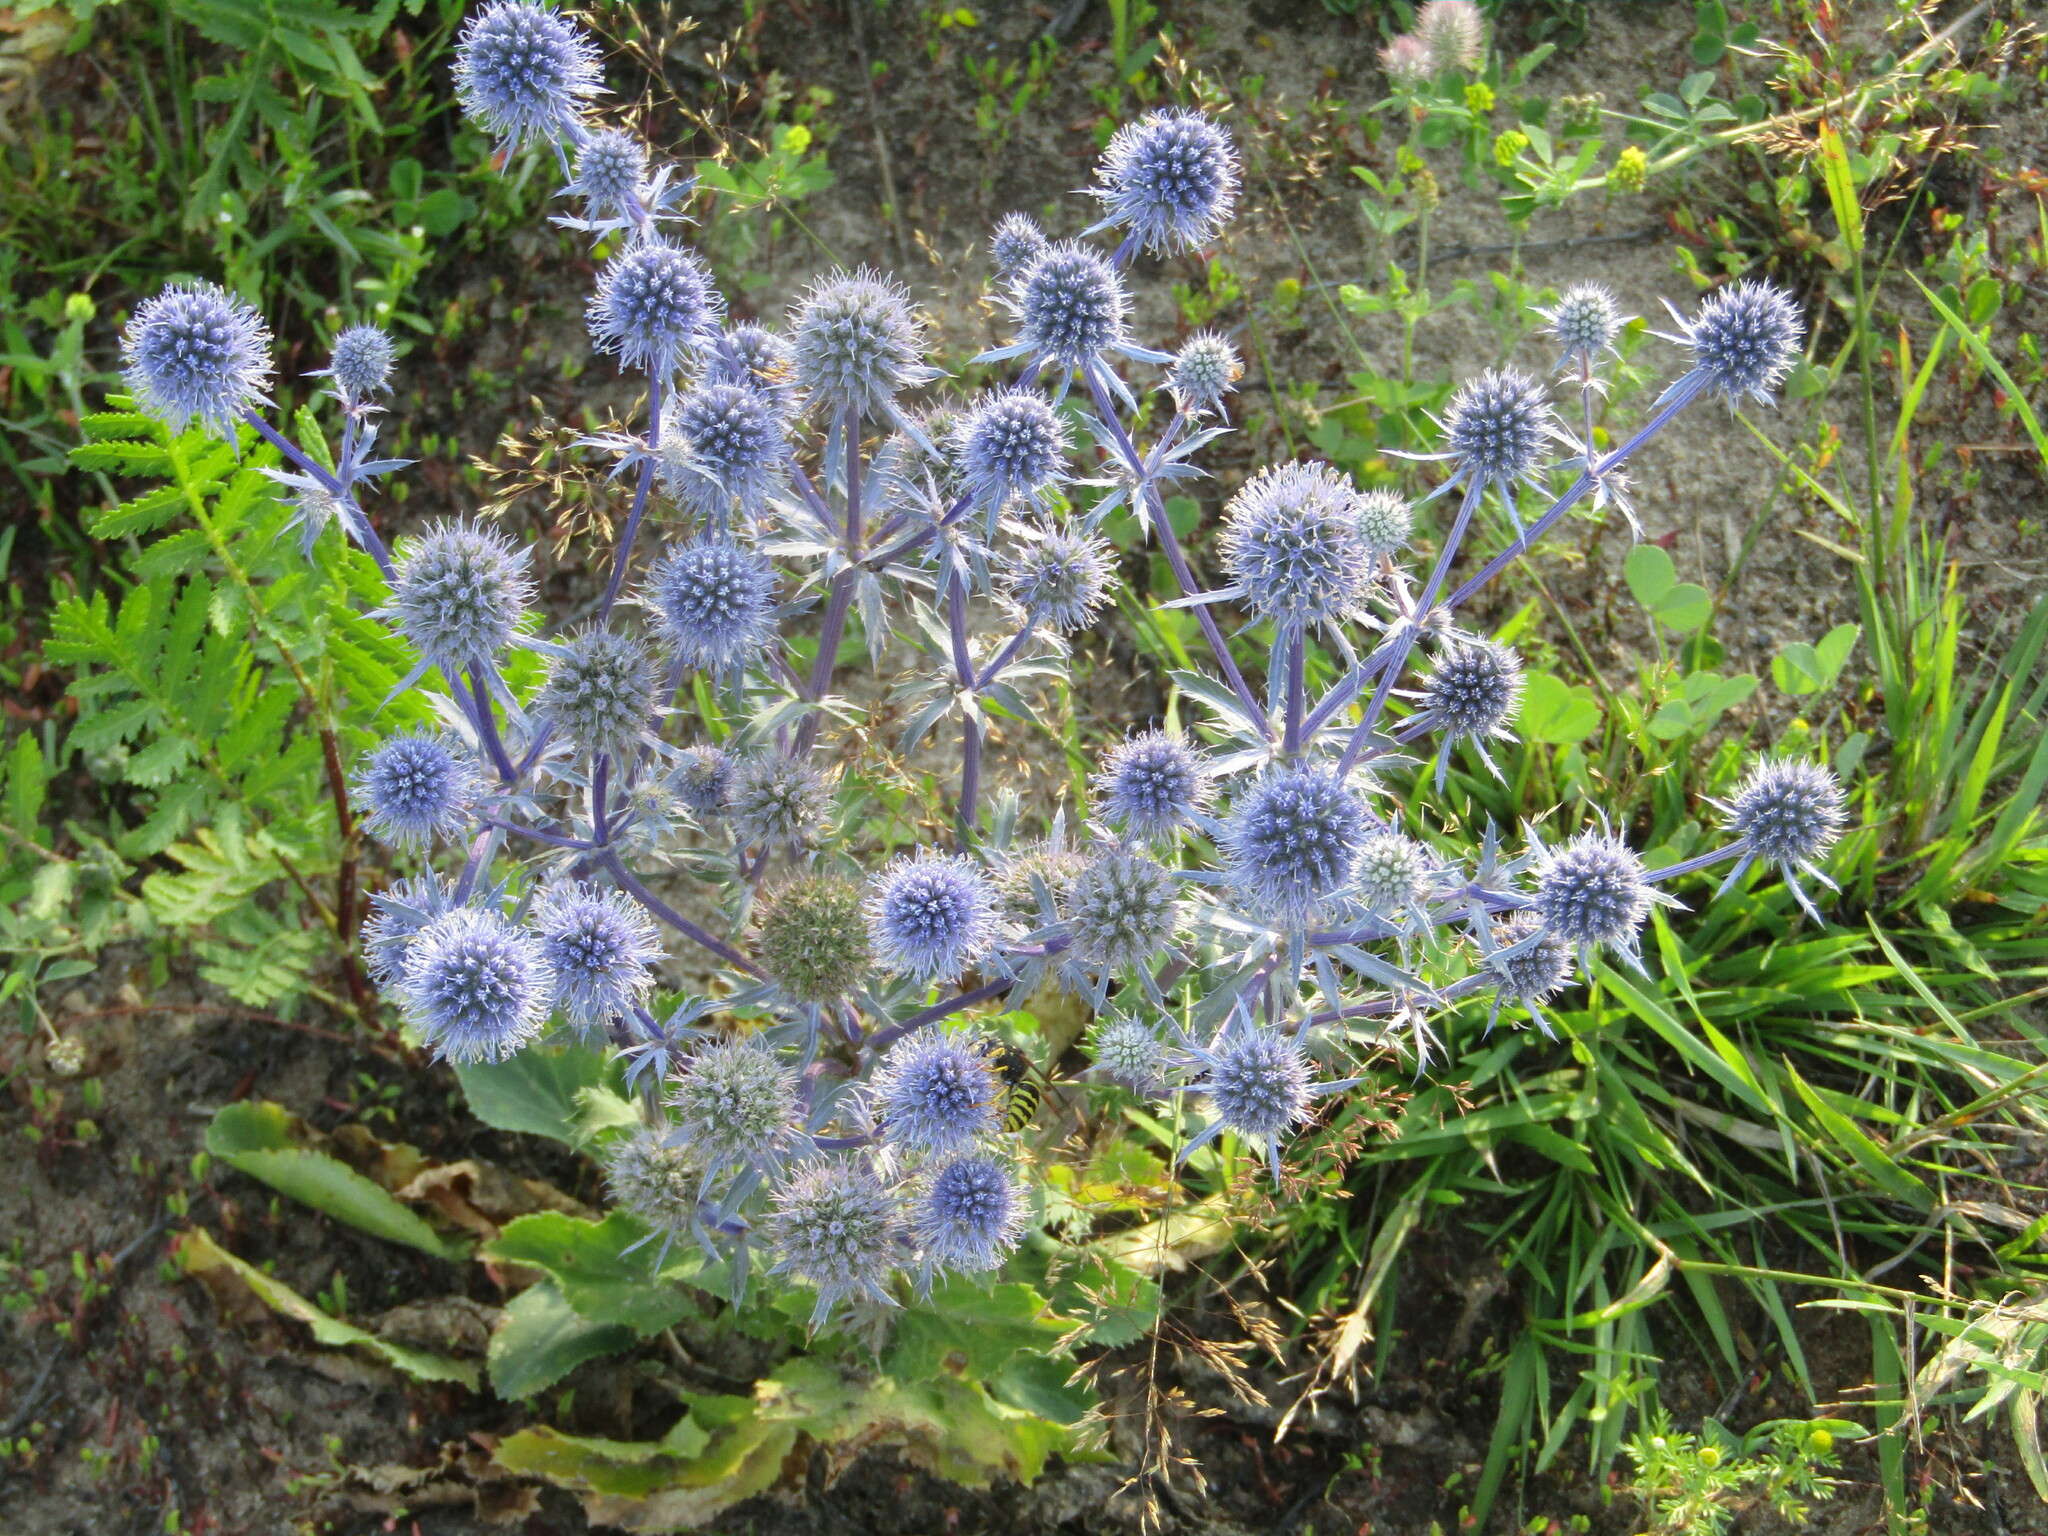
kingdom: Plantae
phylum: Tracheophyta
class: Magnoliopsida
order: Apiales
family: Apiaceae
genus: Eryngium
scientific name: Eryngium planum
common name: Blue eryngo
